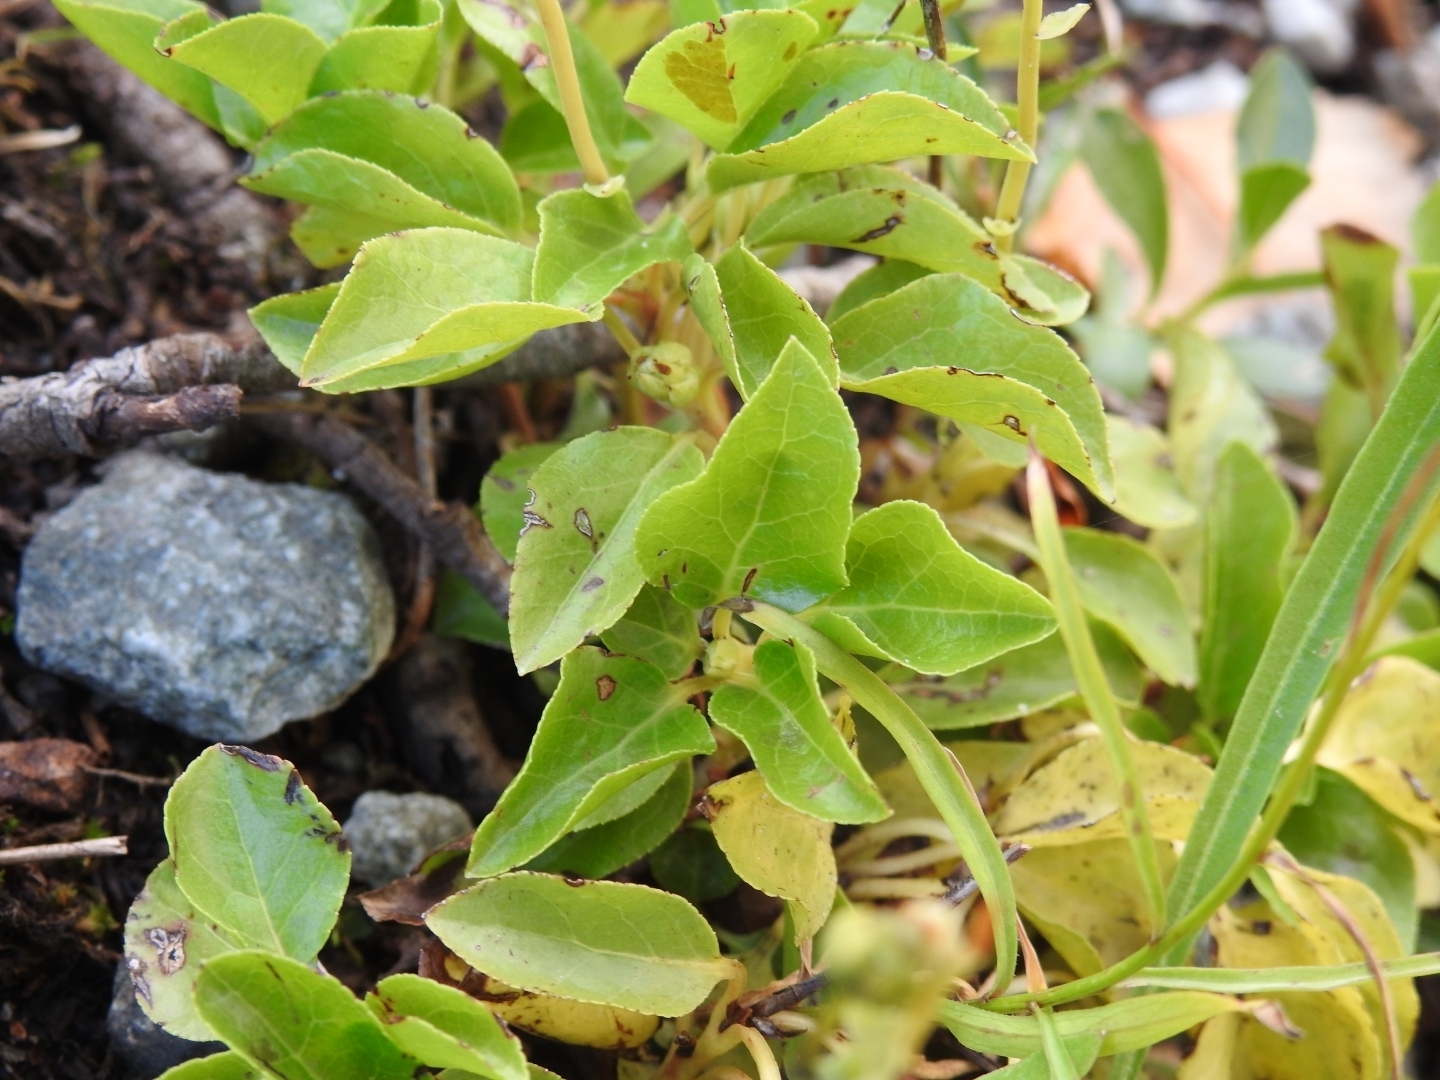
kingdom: Plantae
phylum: Tracheophyta
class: Magnoliopsida
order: Ericales
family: Ericaceae
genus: Orthilia
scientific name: Orthilia secunda
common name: One-sided orthilia
